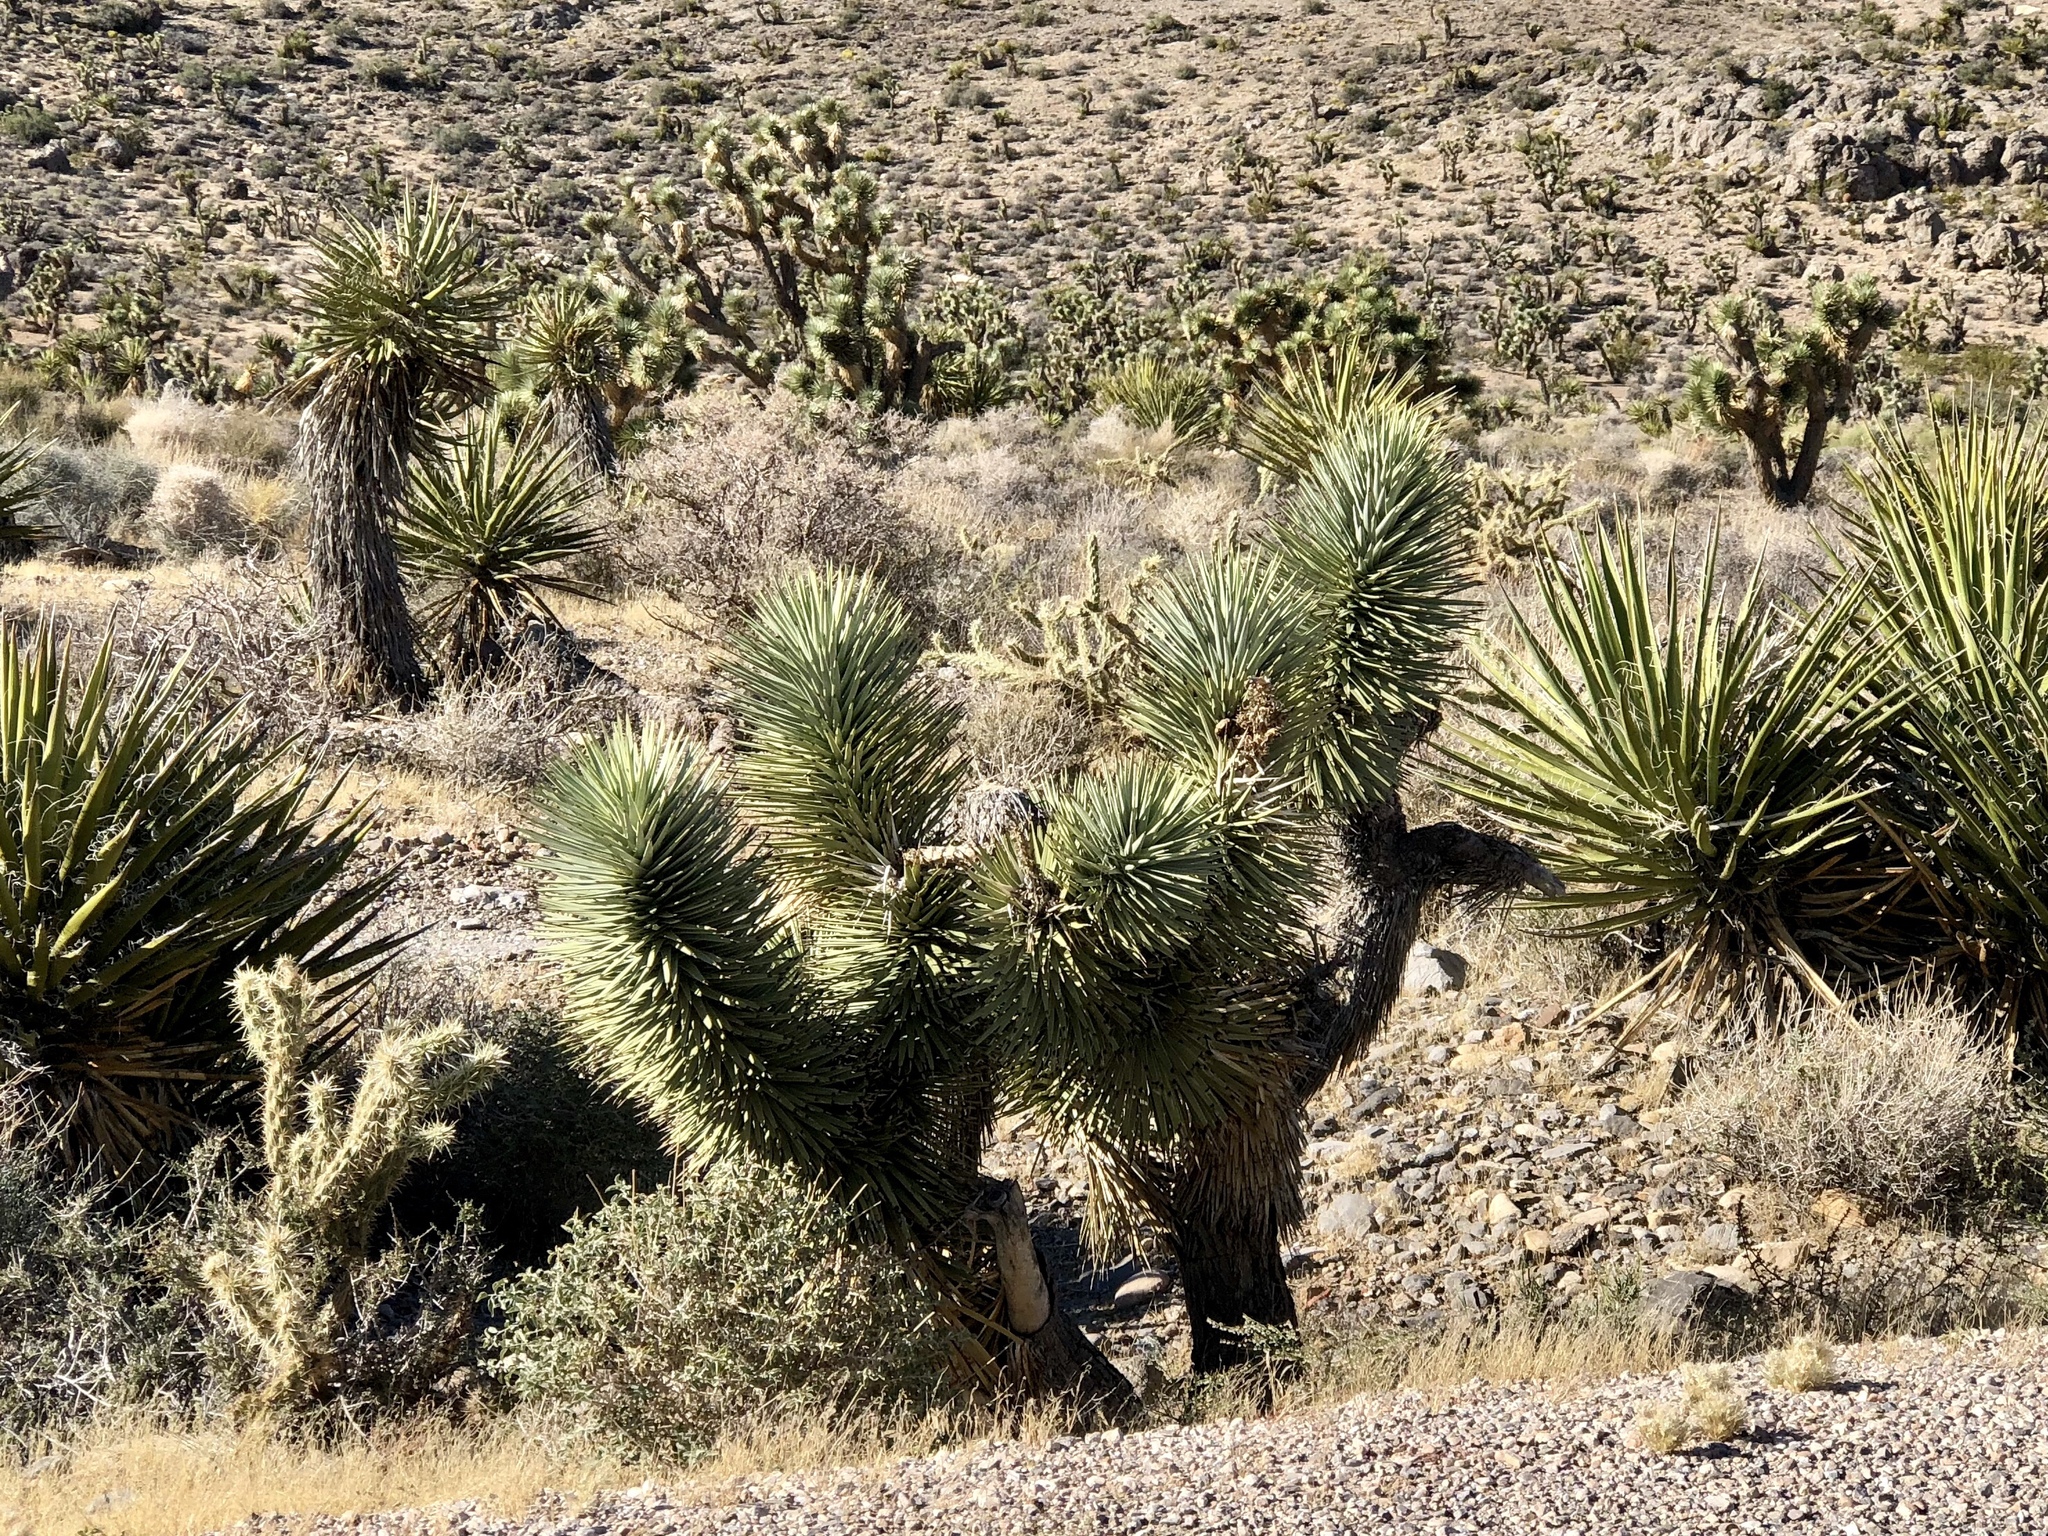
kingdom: Plantae
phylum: Tracheophyta
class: Liliopsida
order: Asparagales
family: Asparagaceae
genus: Yucca
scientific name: Yucca brevifolia
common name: Joshua tree
